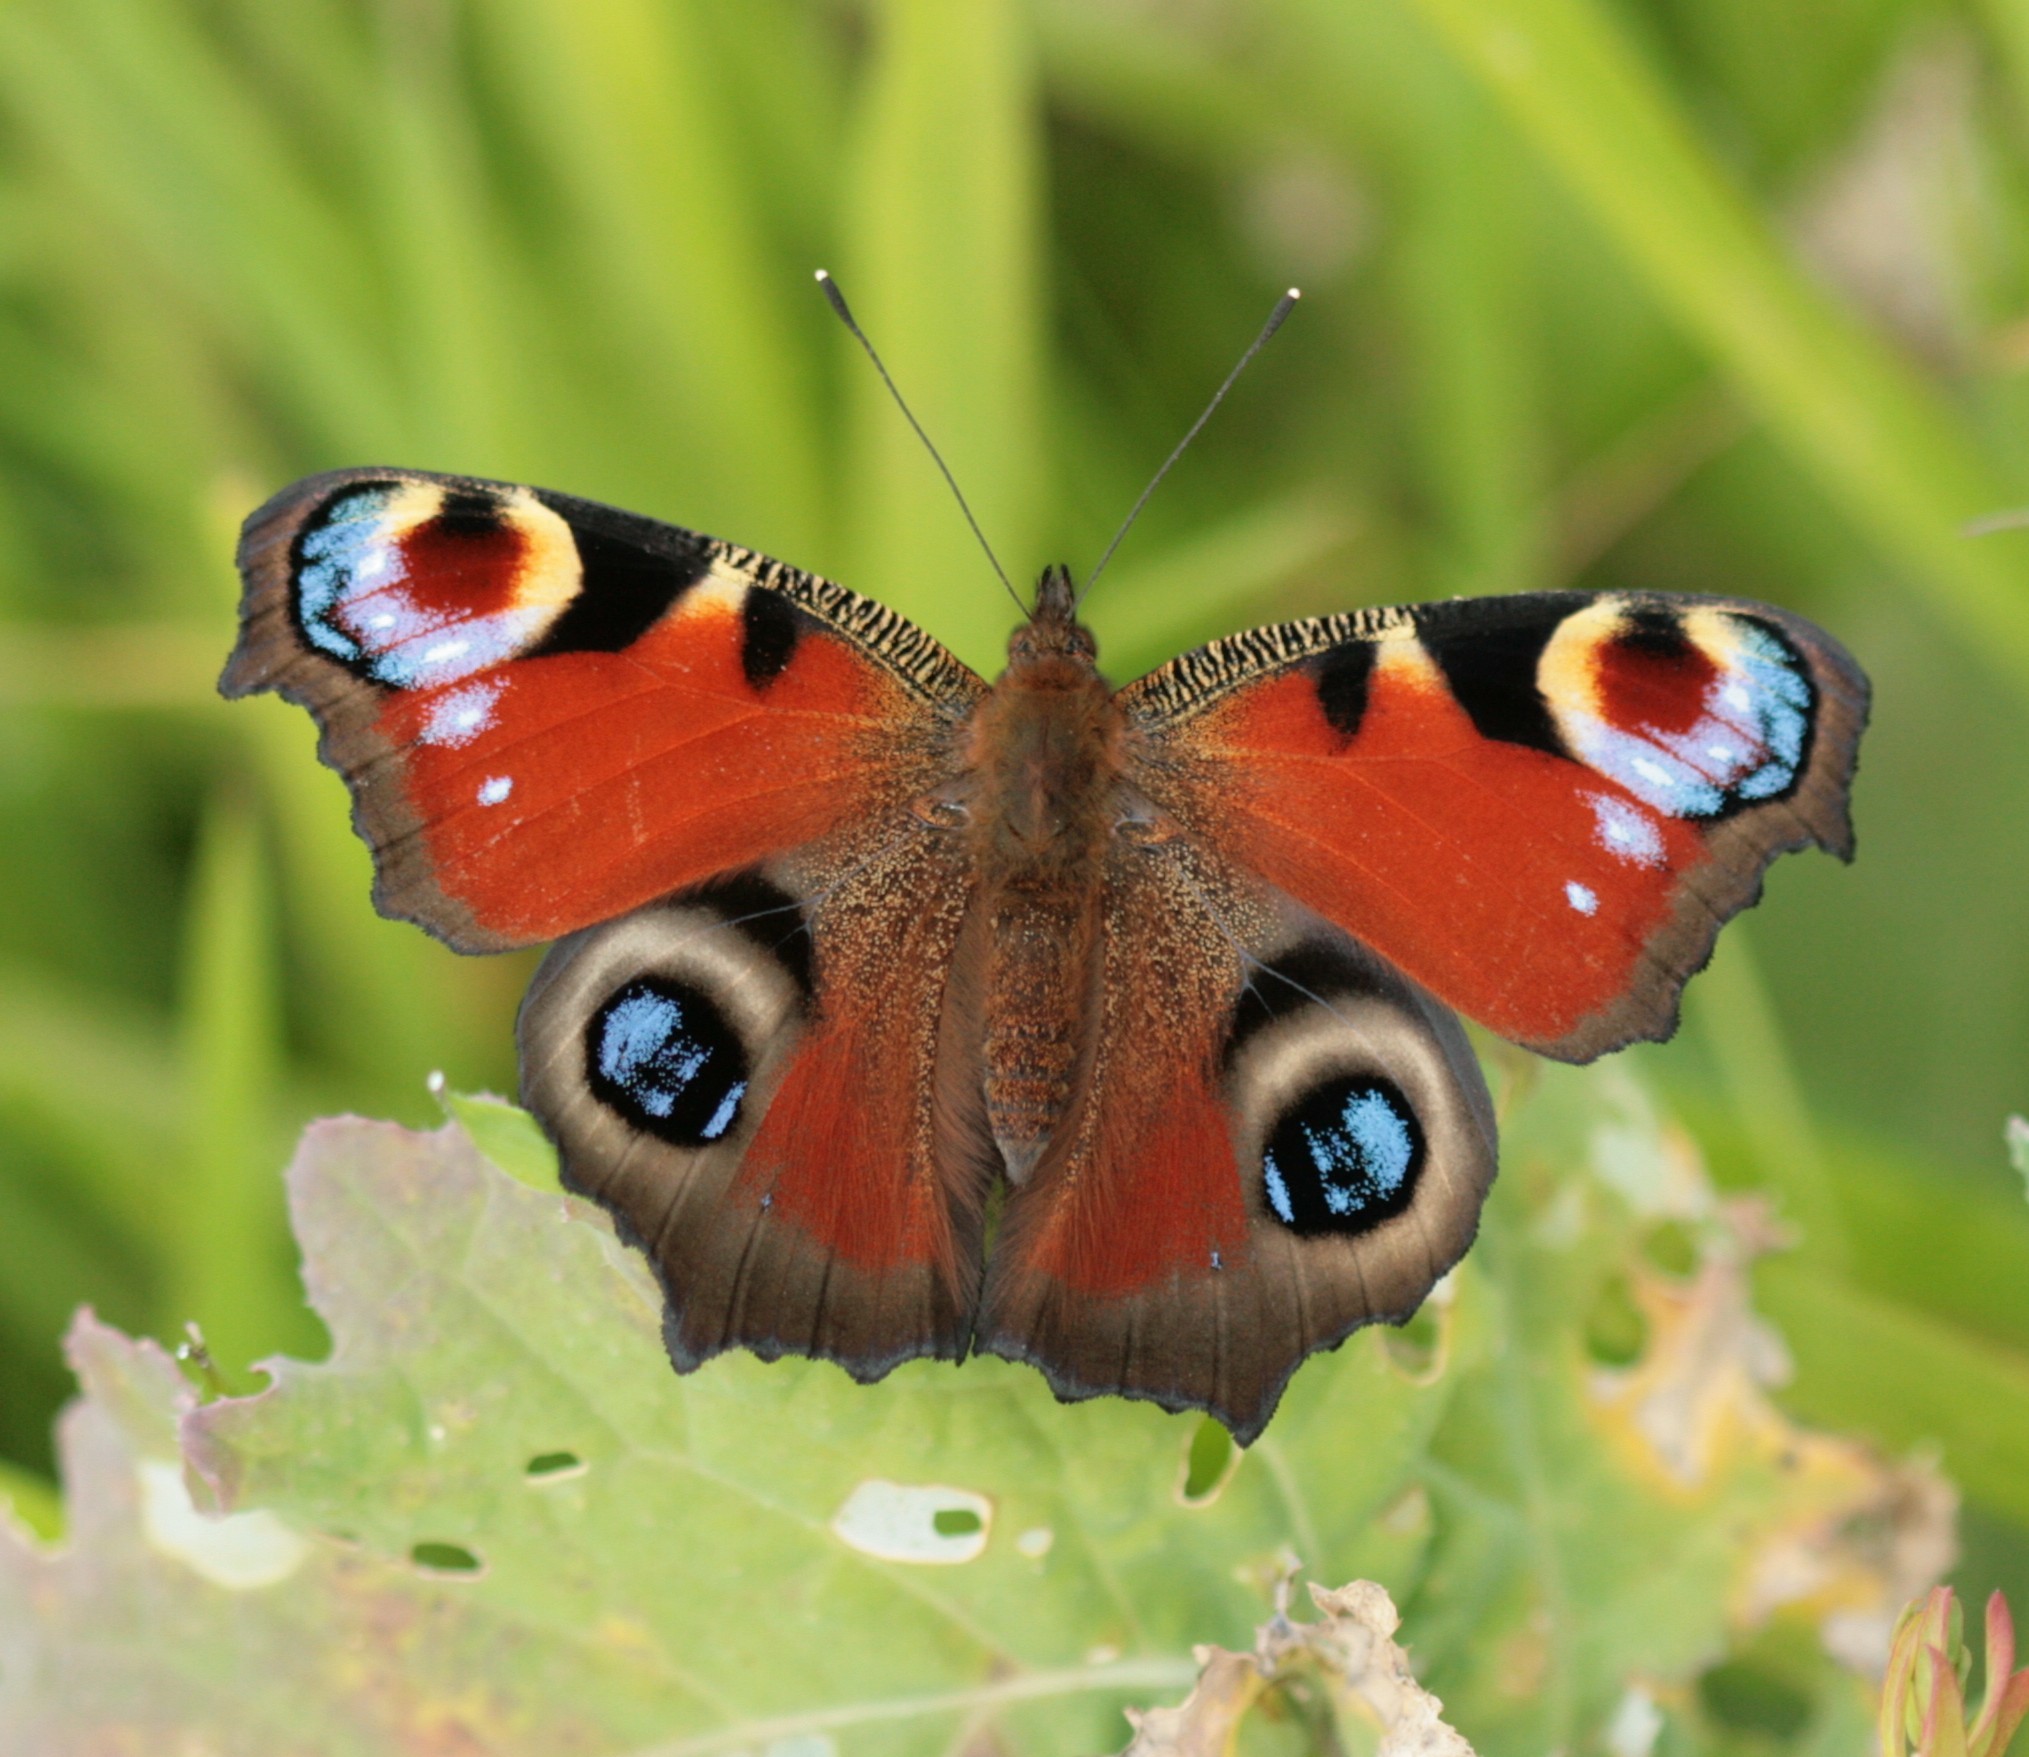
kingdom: Animalia
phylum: Arthropoda
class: Insecta
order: Lepidoptera
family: Nymphalidae
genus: Aglais
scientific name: Aglais io
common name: Peacock
